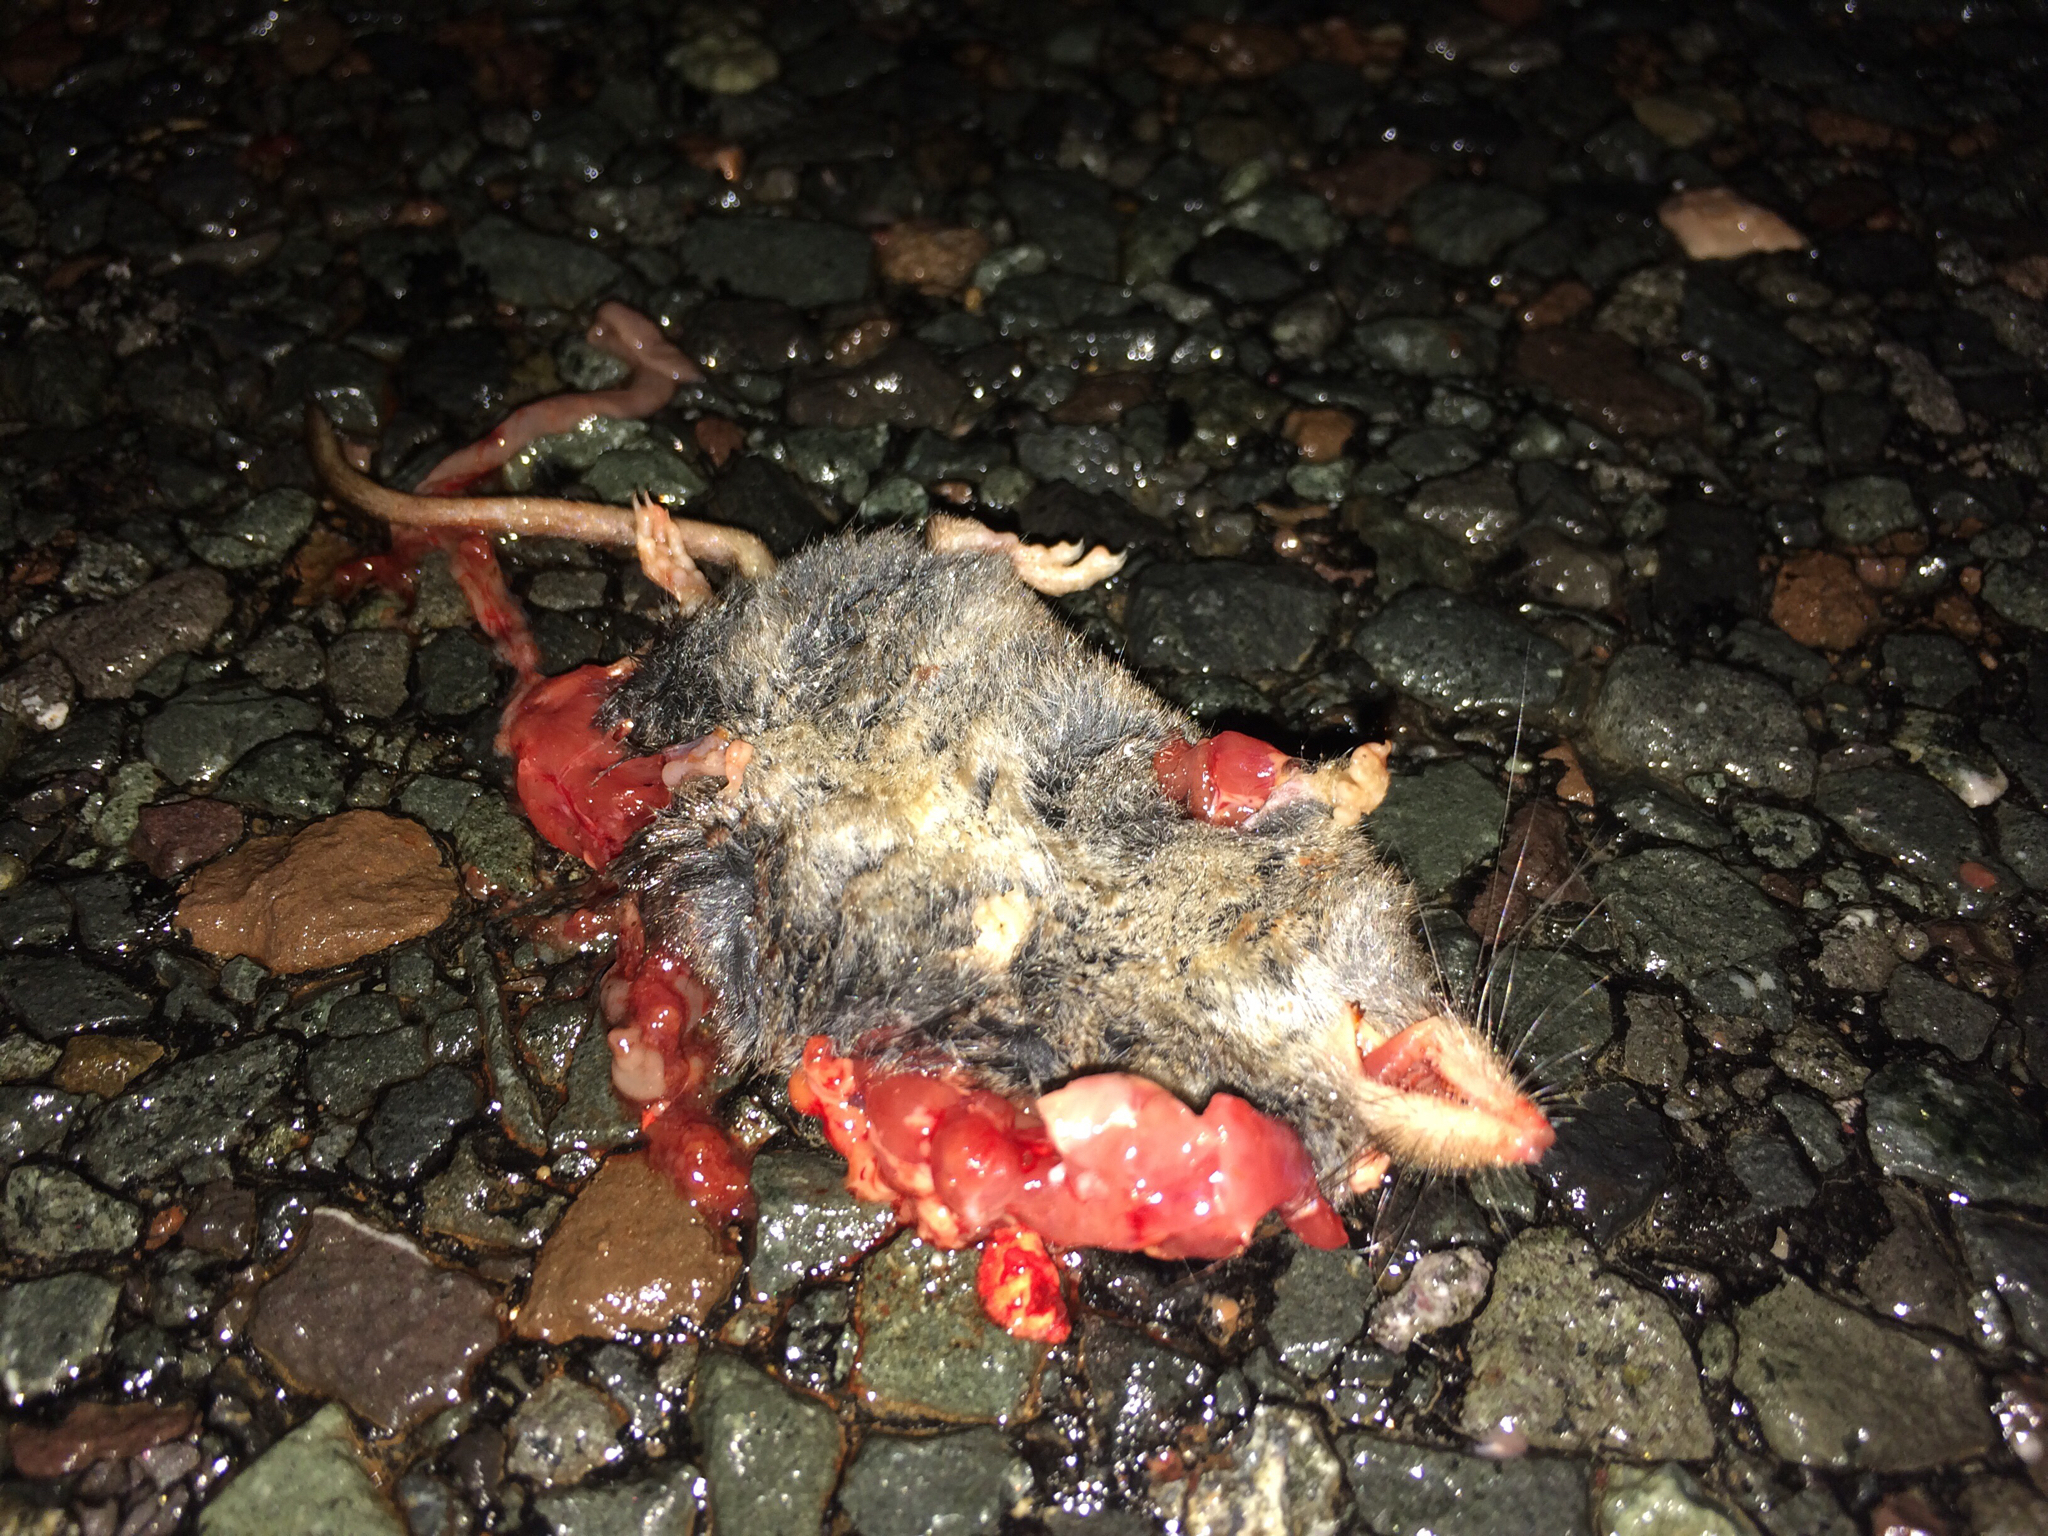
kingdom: Animalia
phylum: Chordata
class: Mammalia
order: Soricomorpha
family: Soricidae
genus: Sorex
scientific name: Sorex fumeus
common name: Smoky shrew
